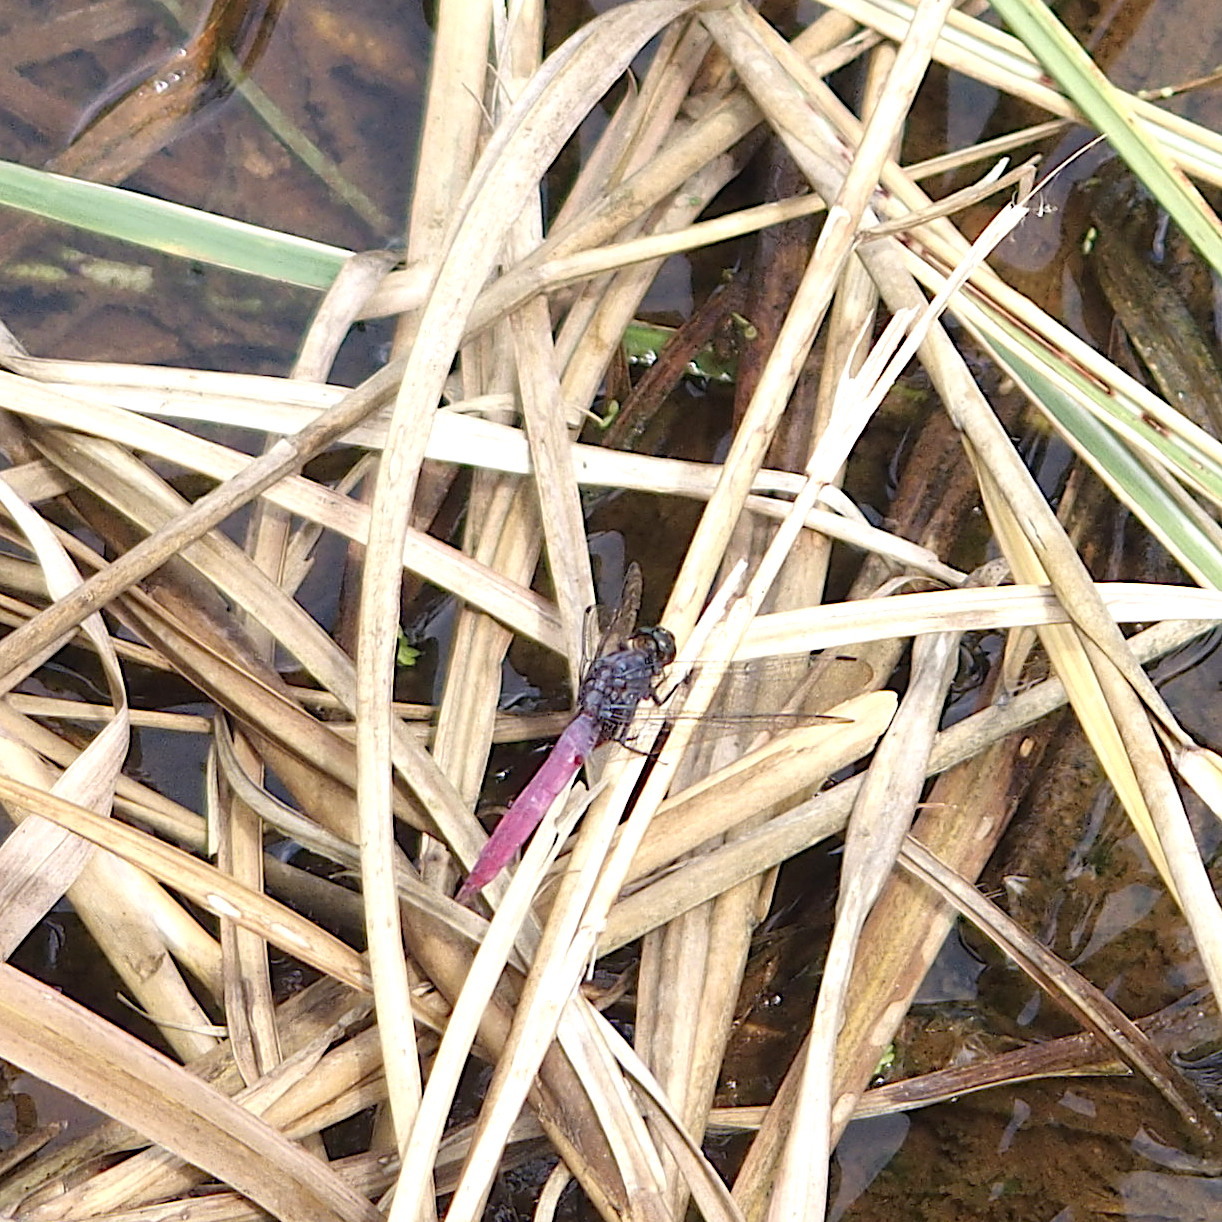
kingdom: Animalia
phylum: Arthropoda
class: Insecta
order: Odonata
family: Libellulidae
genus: Orthetrum
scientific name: Orthetrum pruinosum
